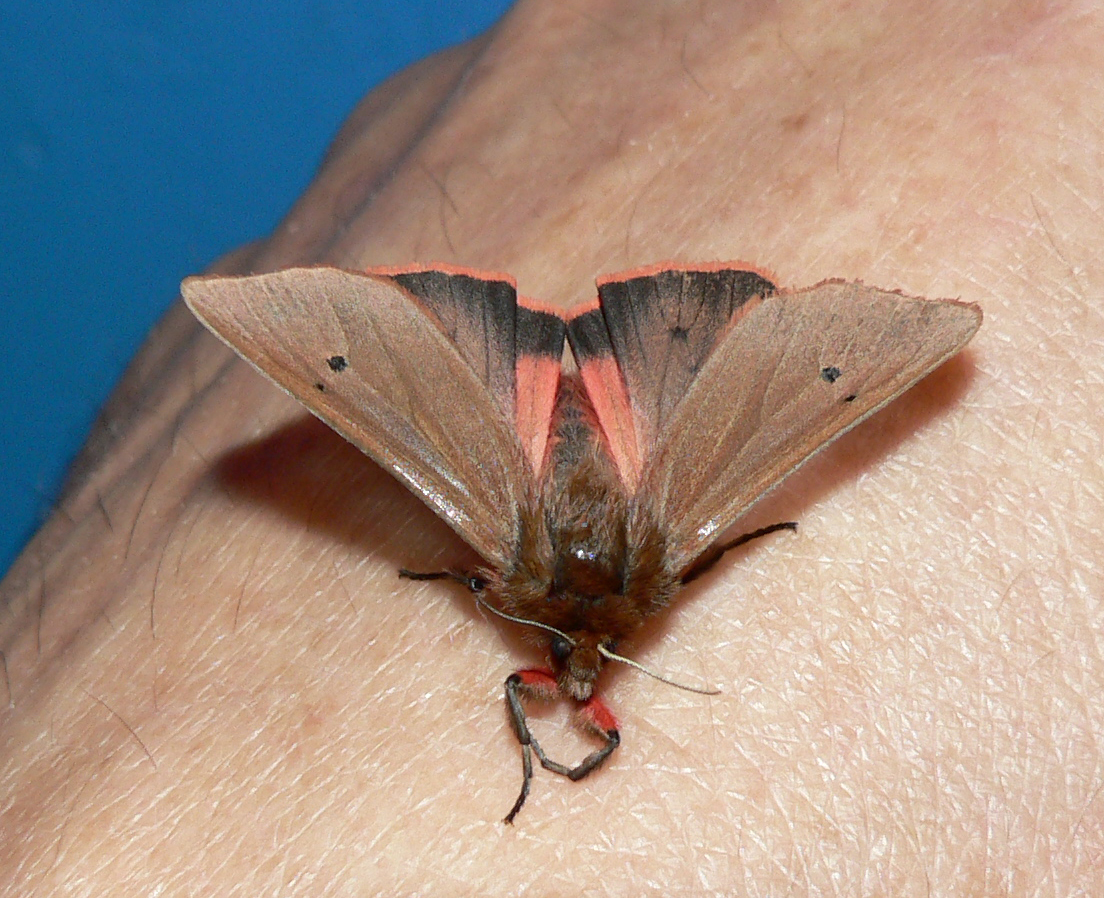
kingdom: Animalia
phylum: Arthropoda
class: Insecta
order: Lepidoptera
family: Erebidae
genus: Phragmatobia
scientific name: Phragmatobia fuliginosa
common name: Ruby tiger
